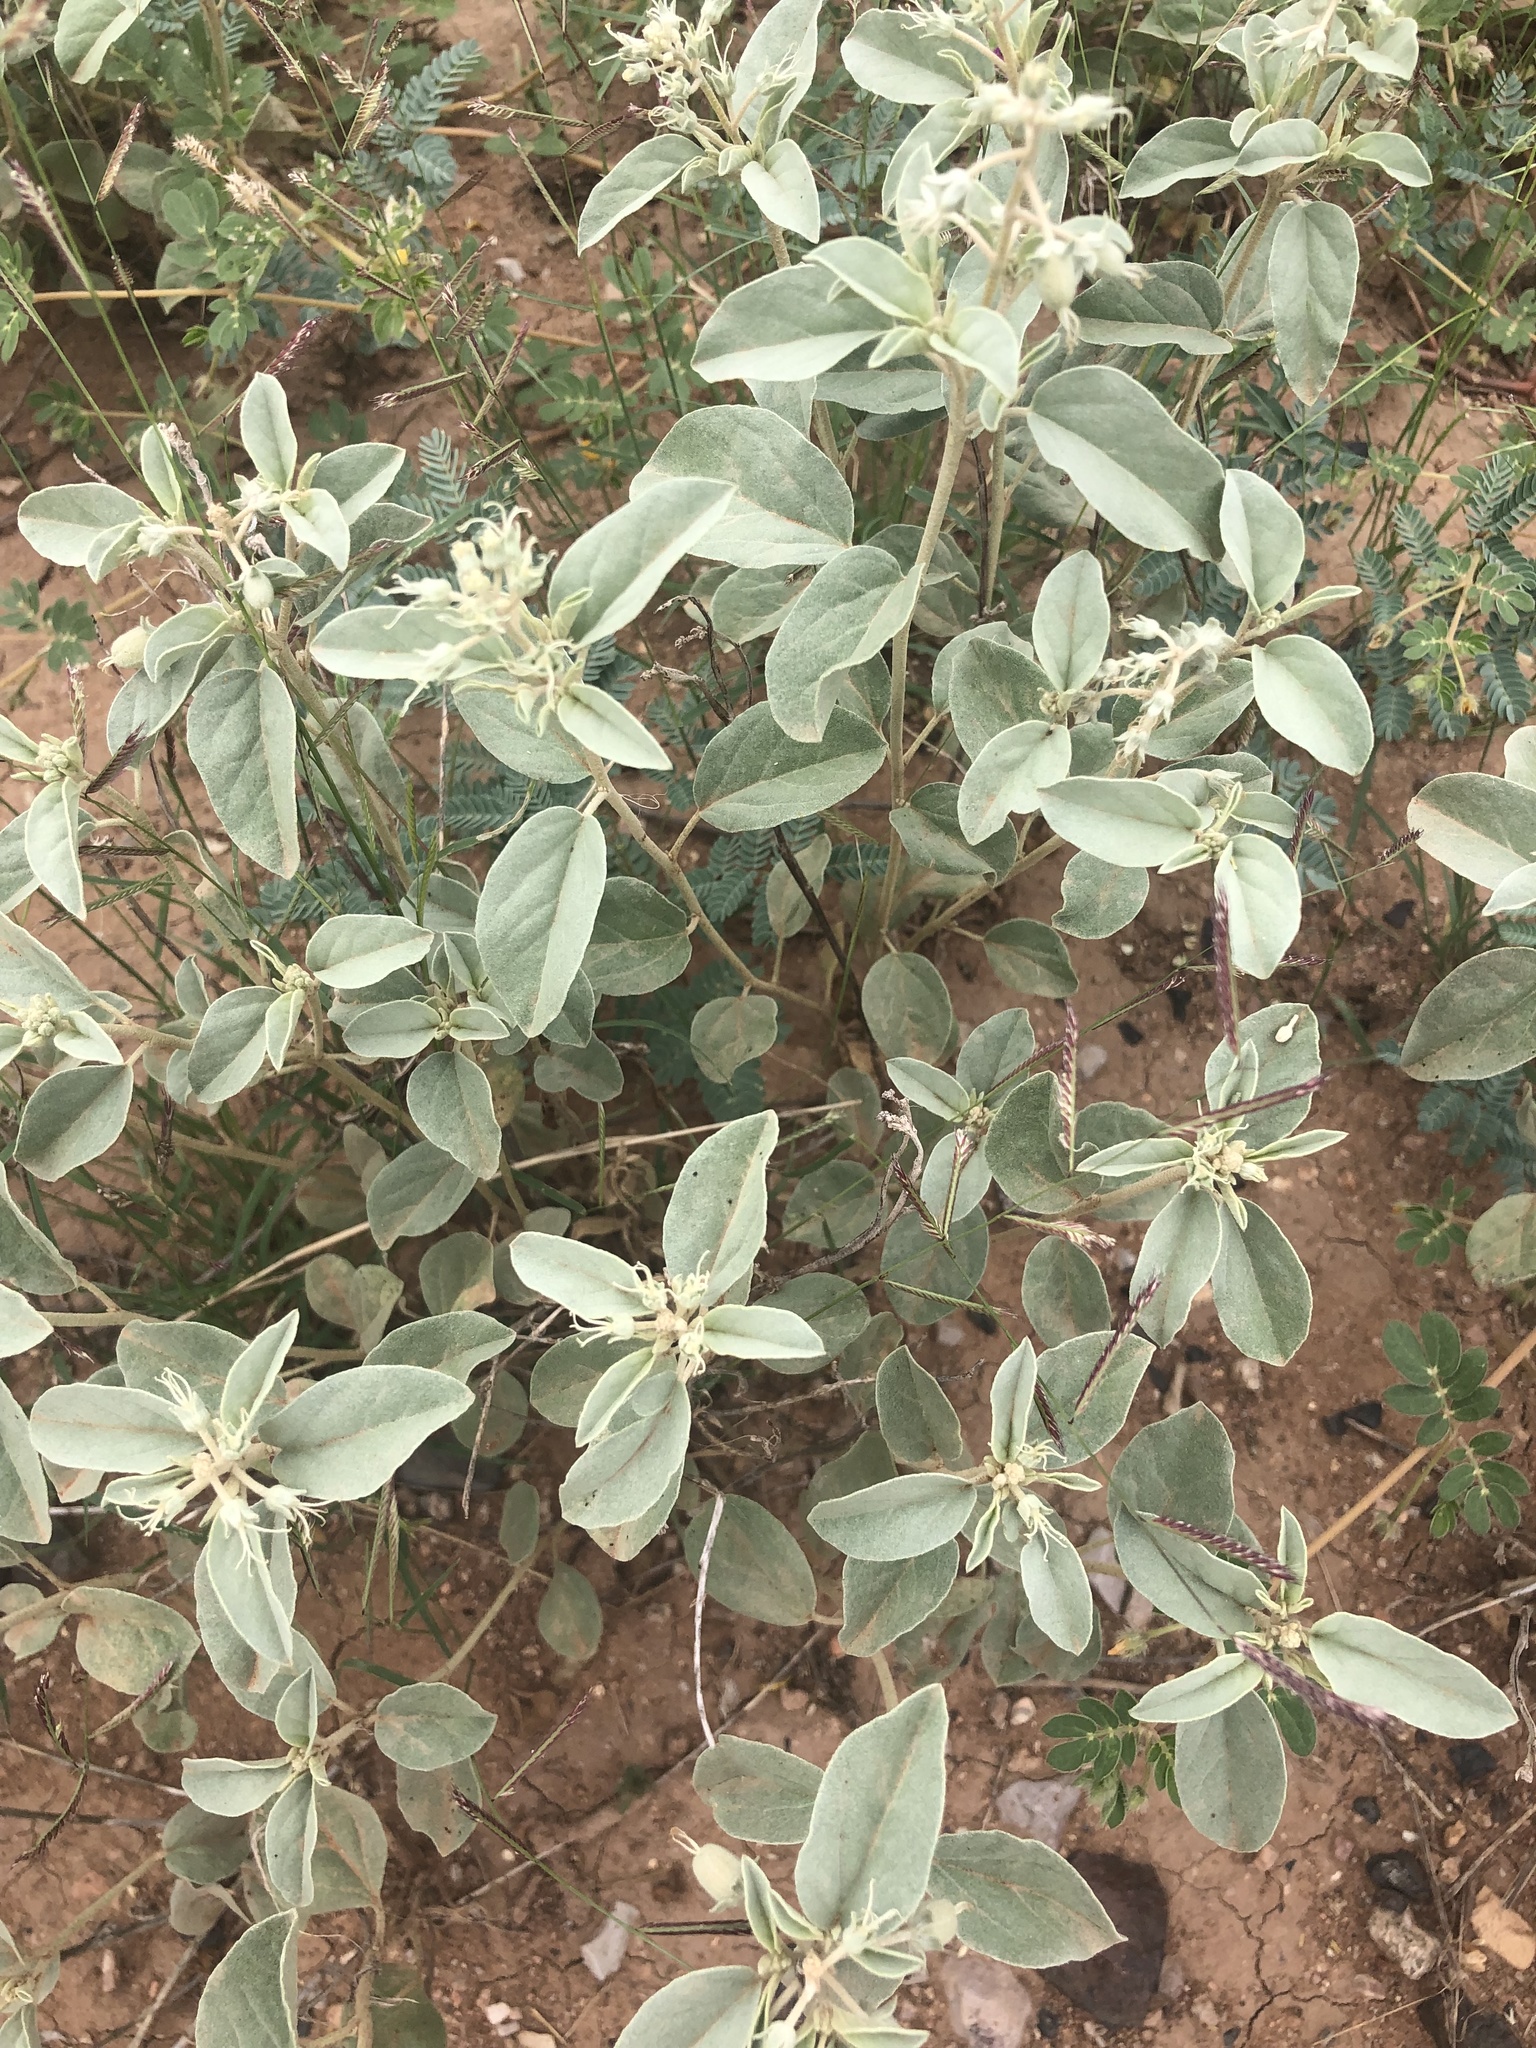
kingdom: Plantae
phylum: Tracheophyta
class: Magnoliopsida
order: Malpighiales
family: Euphorbiaceae
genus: Croton
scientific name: Croton pottsii
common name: Leatherweed
